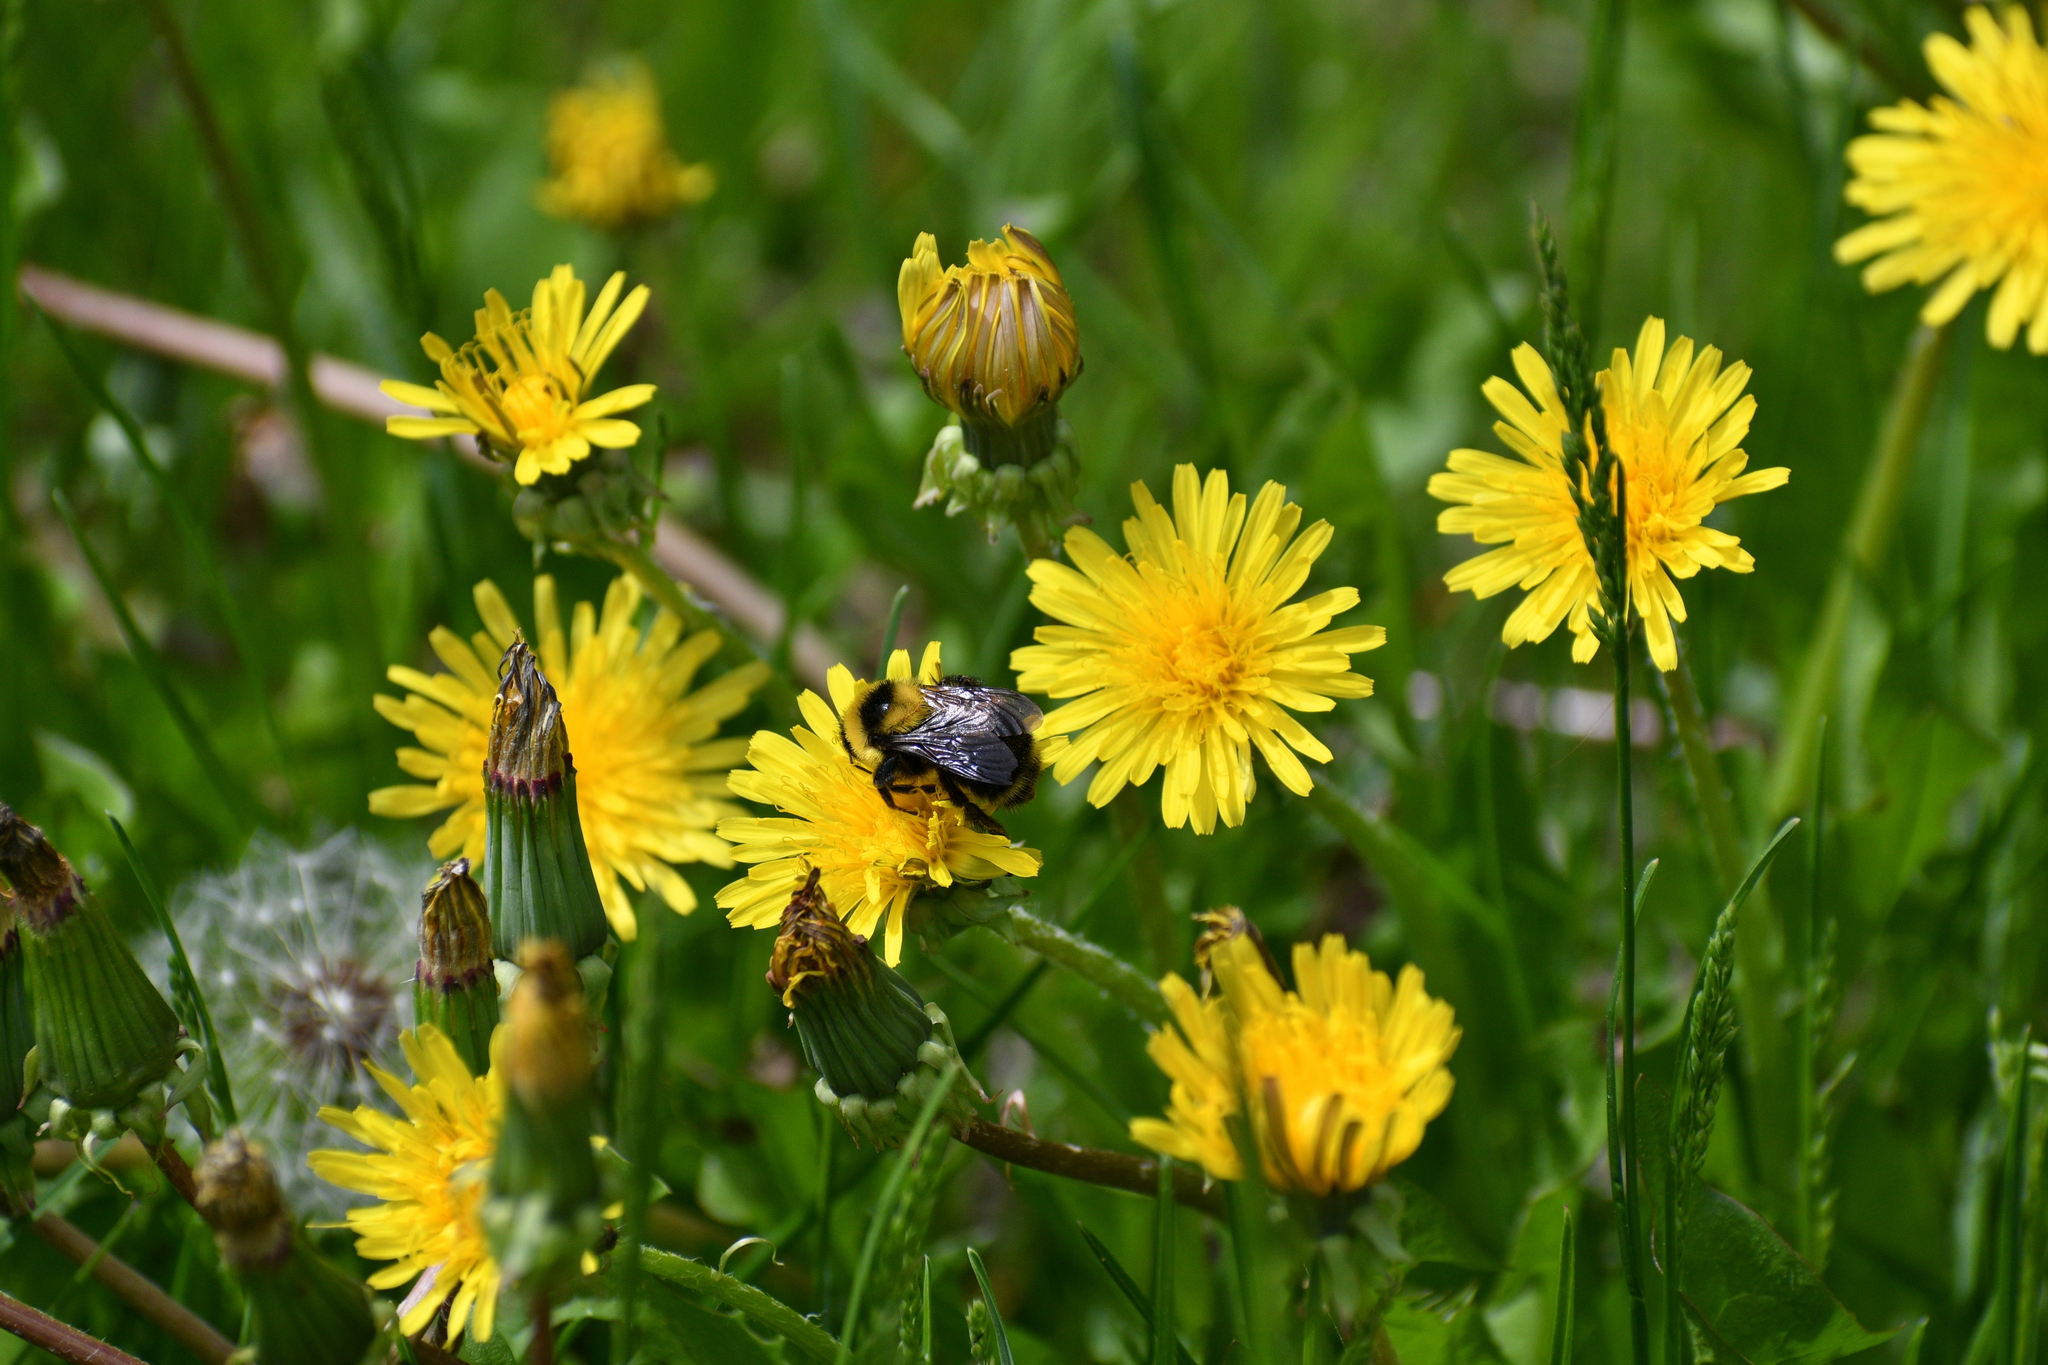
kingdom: Animalia
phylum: Arthropoda
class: Insecta
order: Hymenoptera
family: Apidae
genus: Bombus
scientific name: Bombus rufocinctus
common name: Red-belted bumble bee
